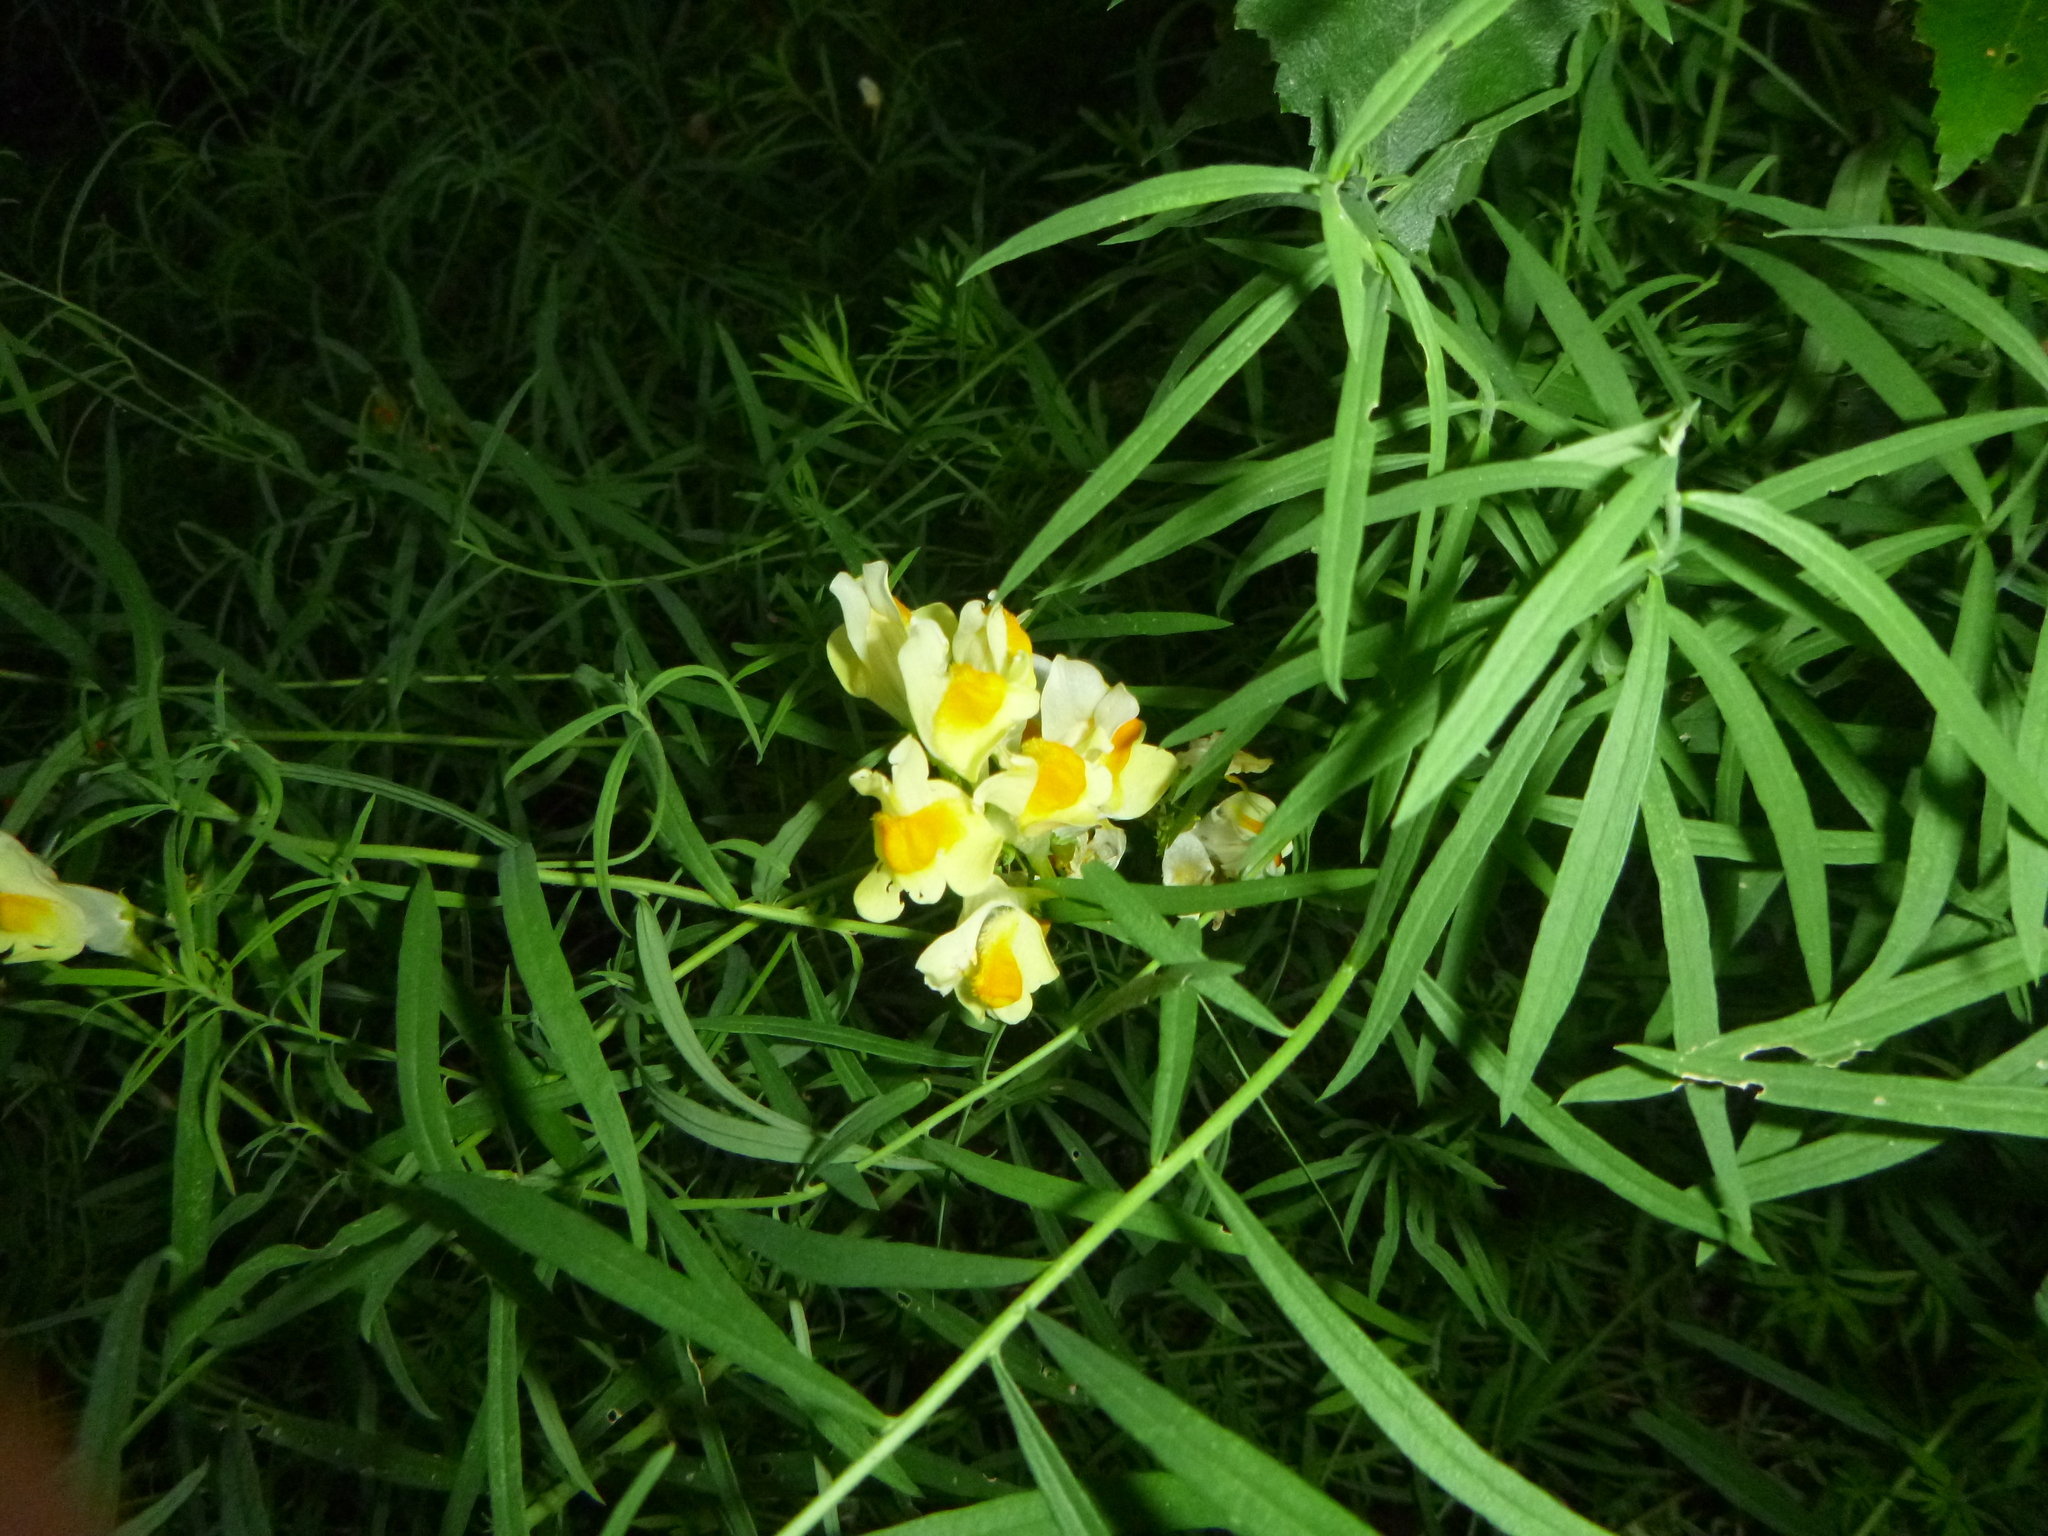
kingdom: Plantae
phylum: Tracheophyta
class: Magnoliopsida
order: Lamiales
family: Plantaginaceae
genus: Linaria
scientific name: Linaria vulgaris
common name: Butter and eggs
